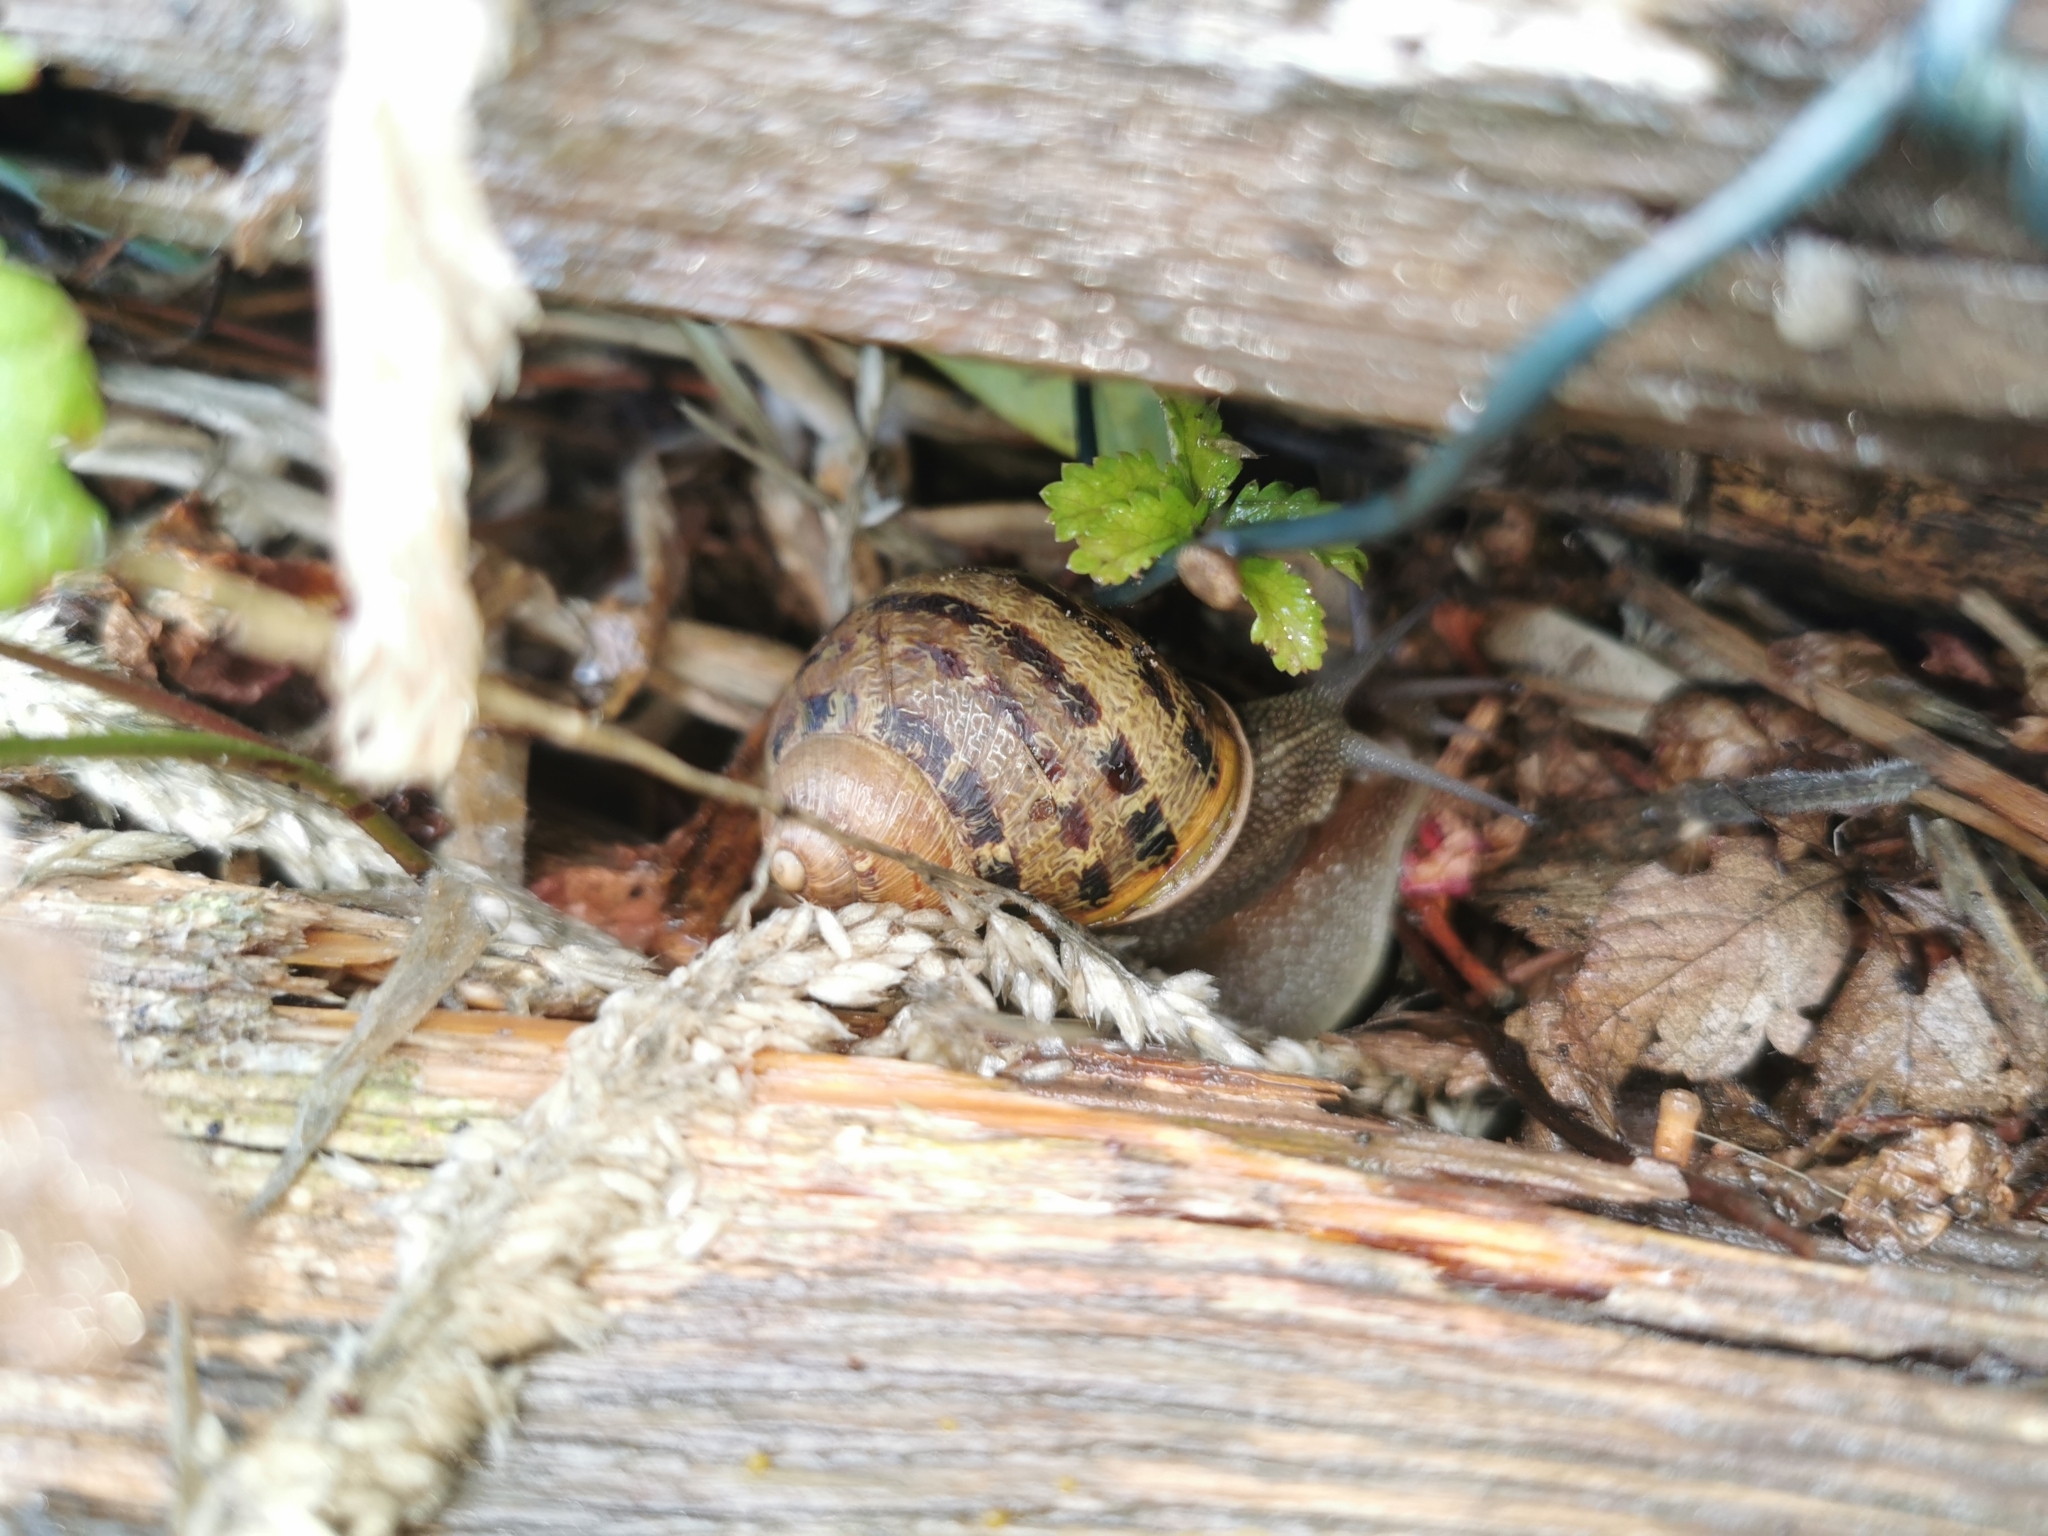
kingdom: Animalia
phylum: Mollusca
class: Gastropoda
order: Stylommatophora
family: Helicidae
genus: Cornu
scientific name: Cornu aspersum
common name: Brown garden snail
